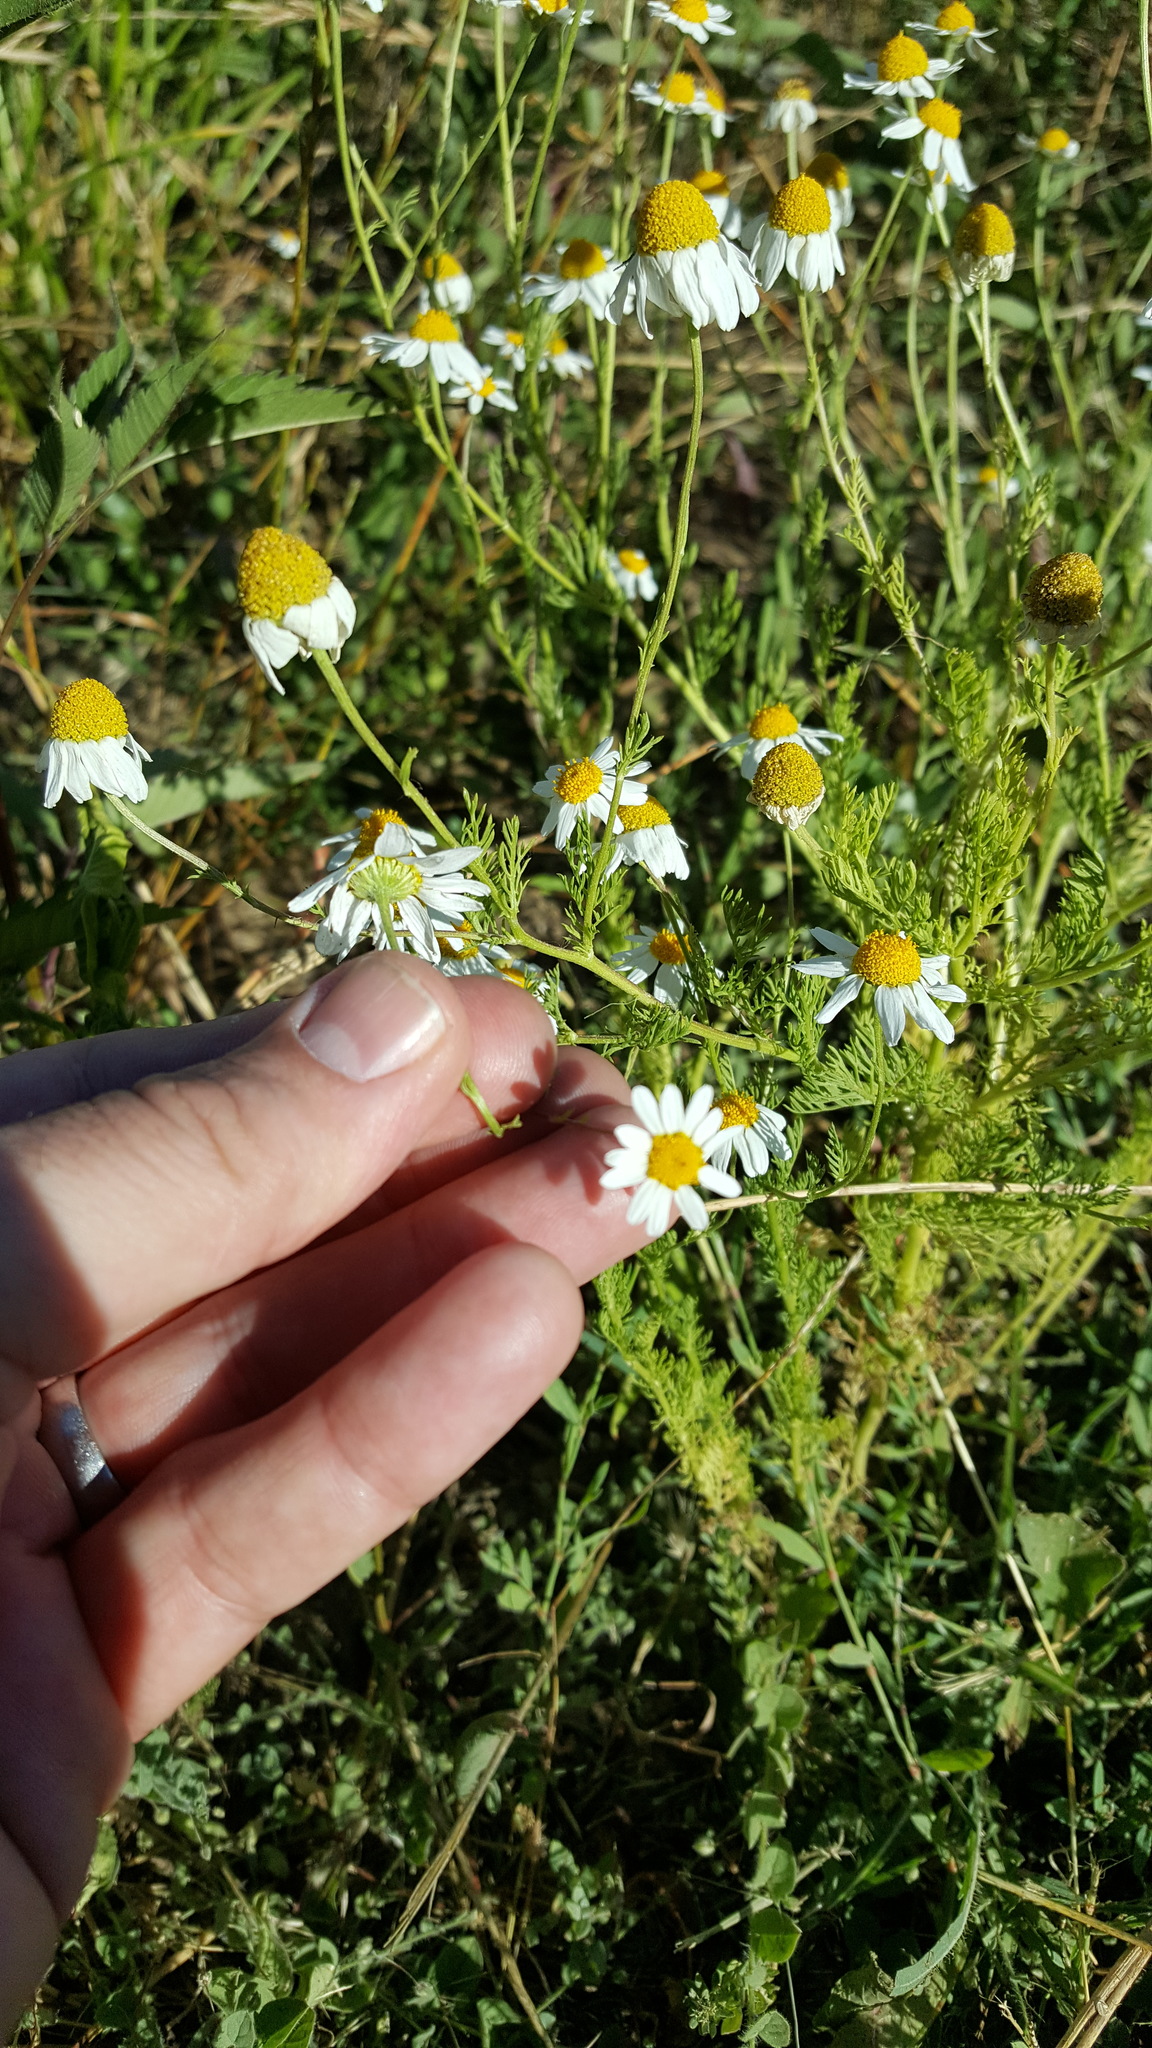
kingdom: Plantae
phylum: Tracheophyta
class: Magnoliopsida
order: Asterales
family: Asteraceae
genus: Anthemis
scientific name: Anthemis cotula
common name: Stinking chamomile
